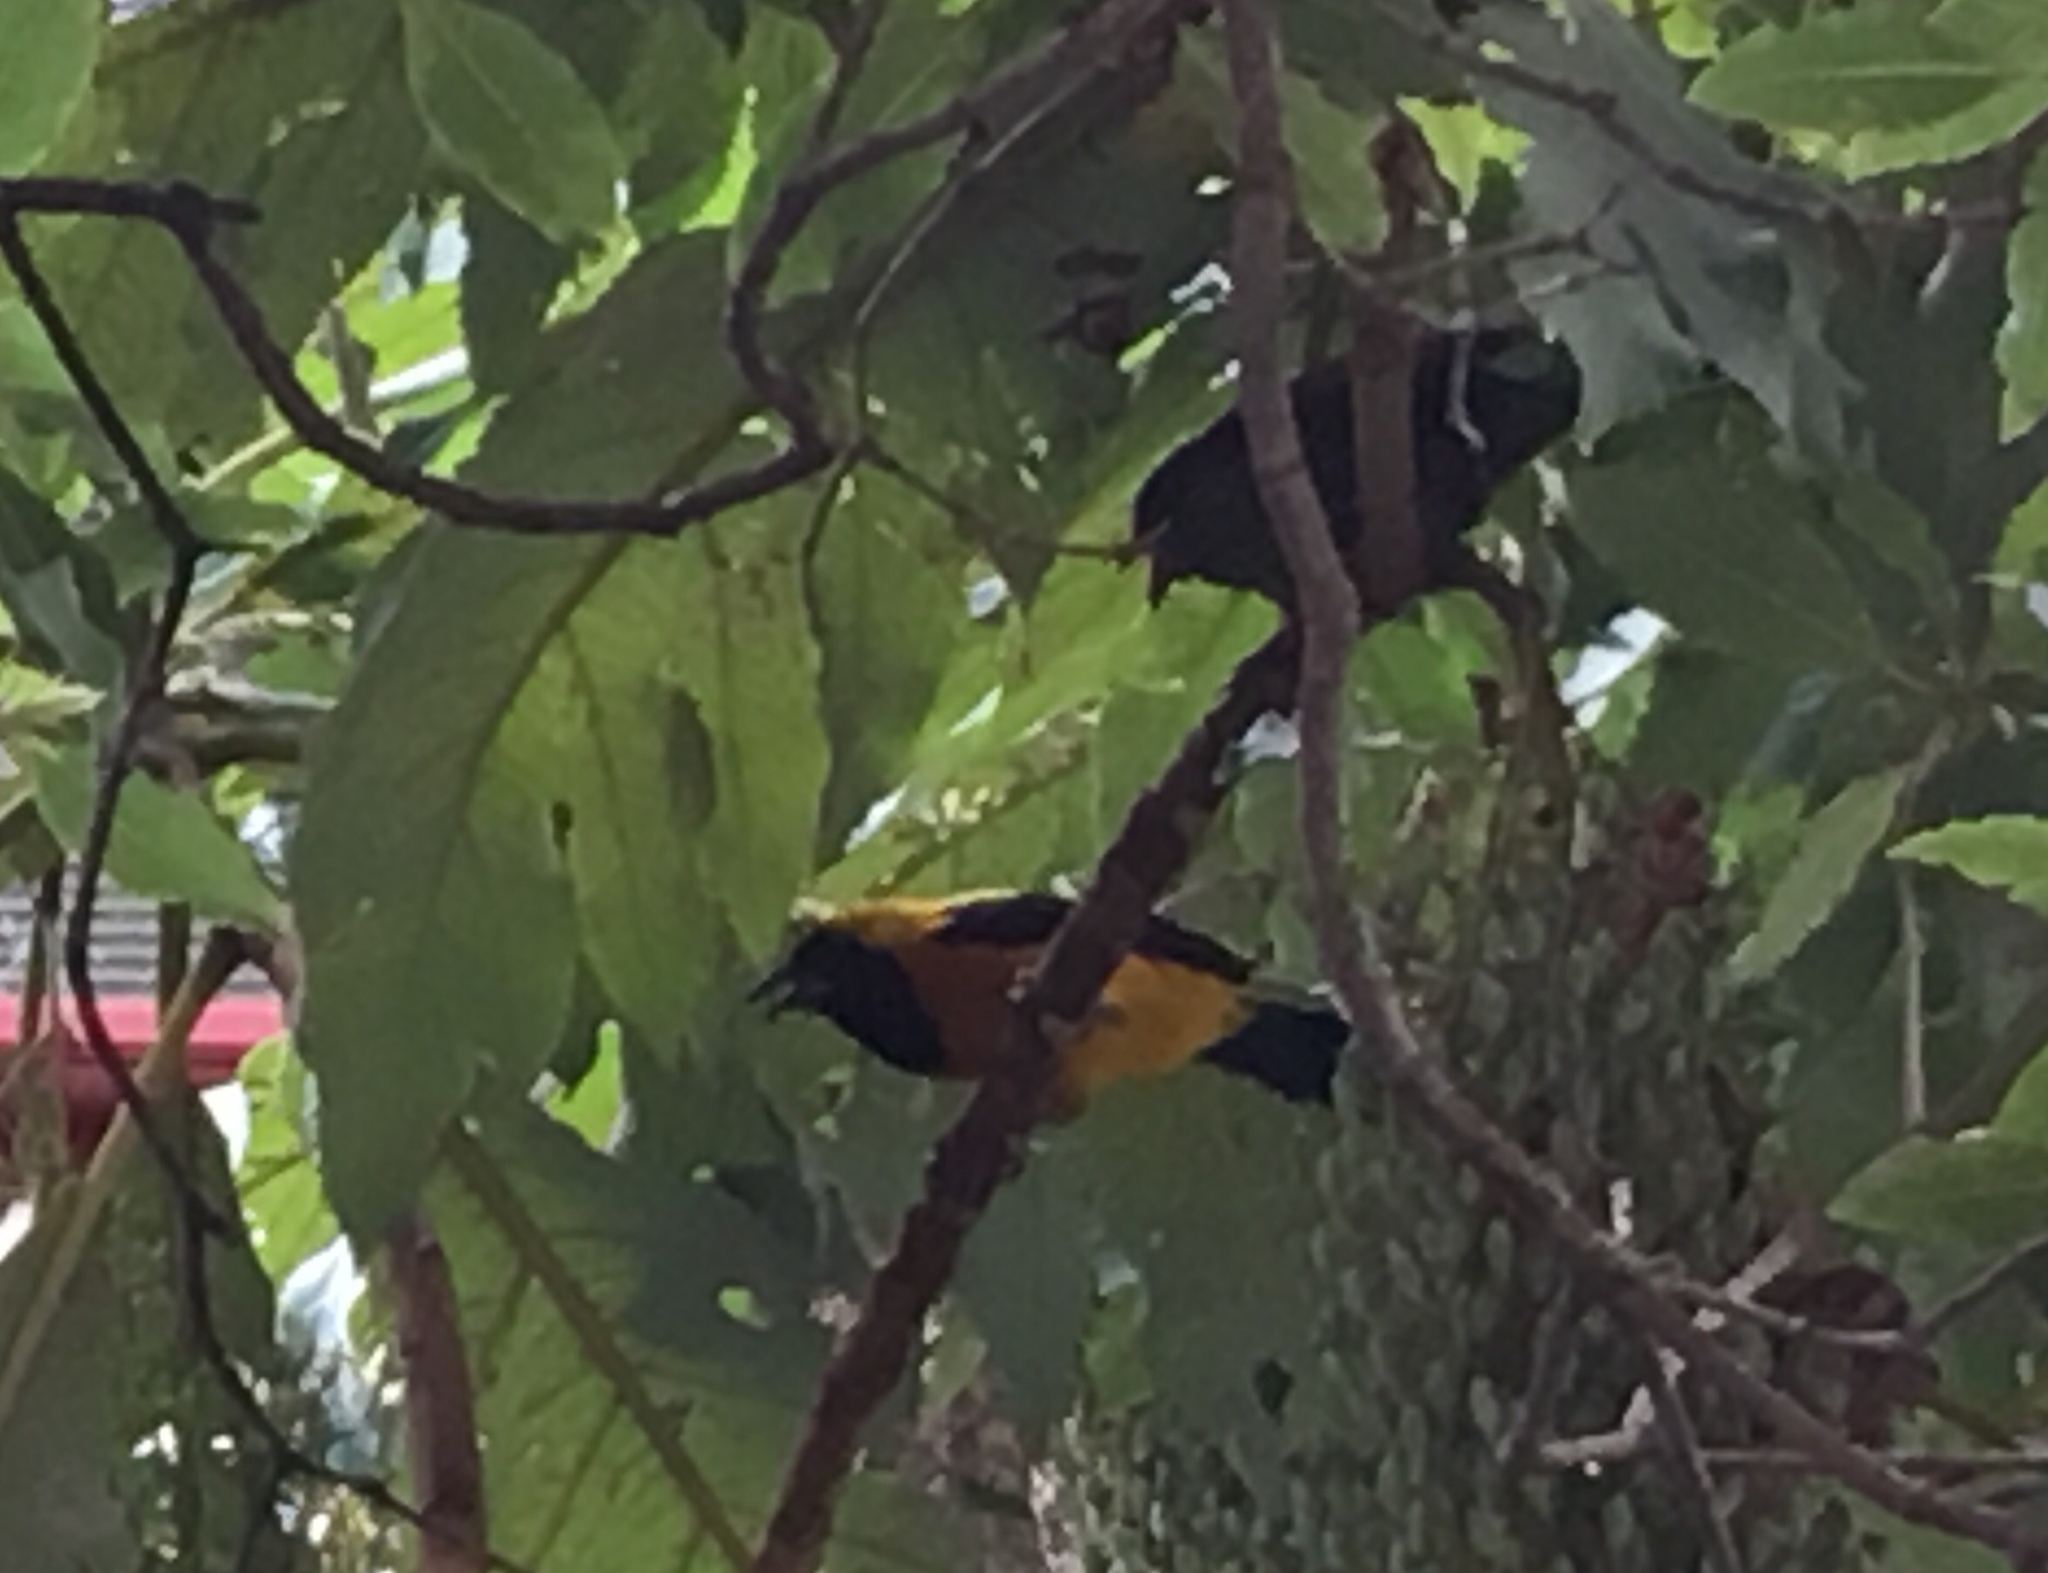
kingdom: Animalia
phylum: Chordata
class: Aves
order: Passeriformes
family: Icteridae
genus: Icterus
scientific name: Icterus chrysater
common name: Yellow-backed oriole
